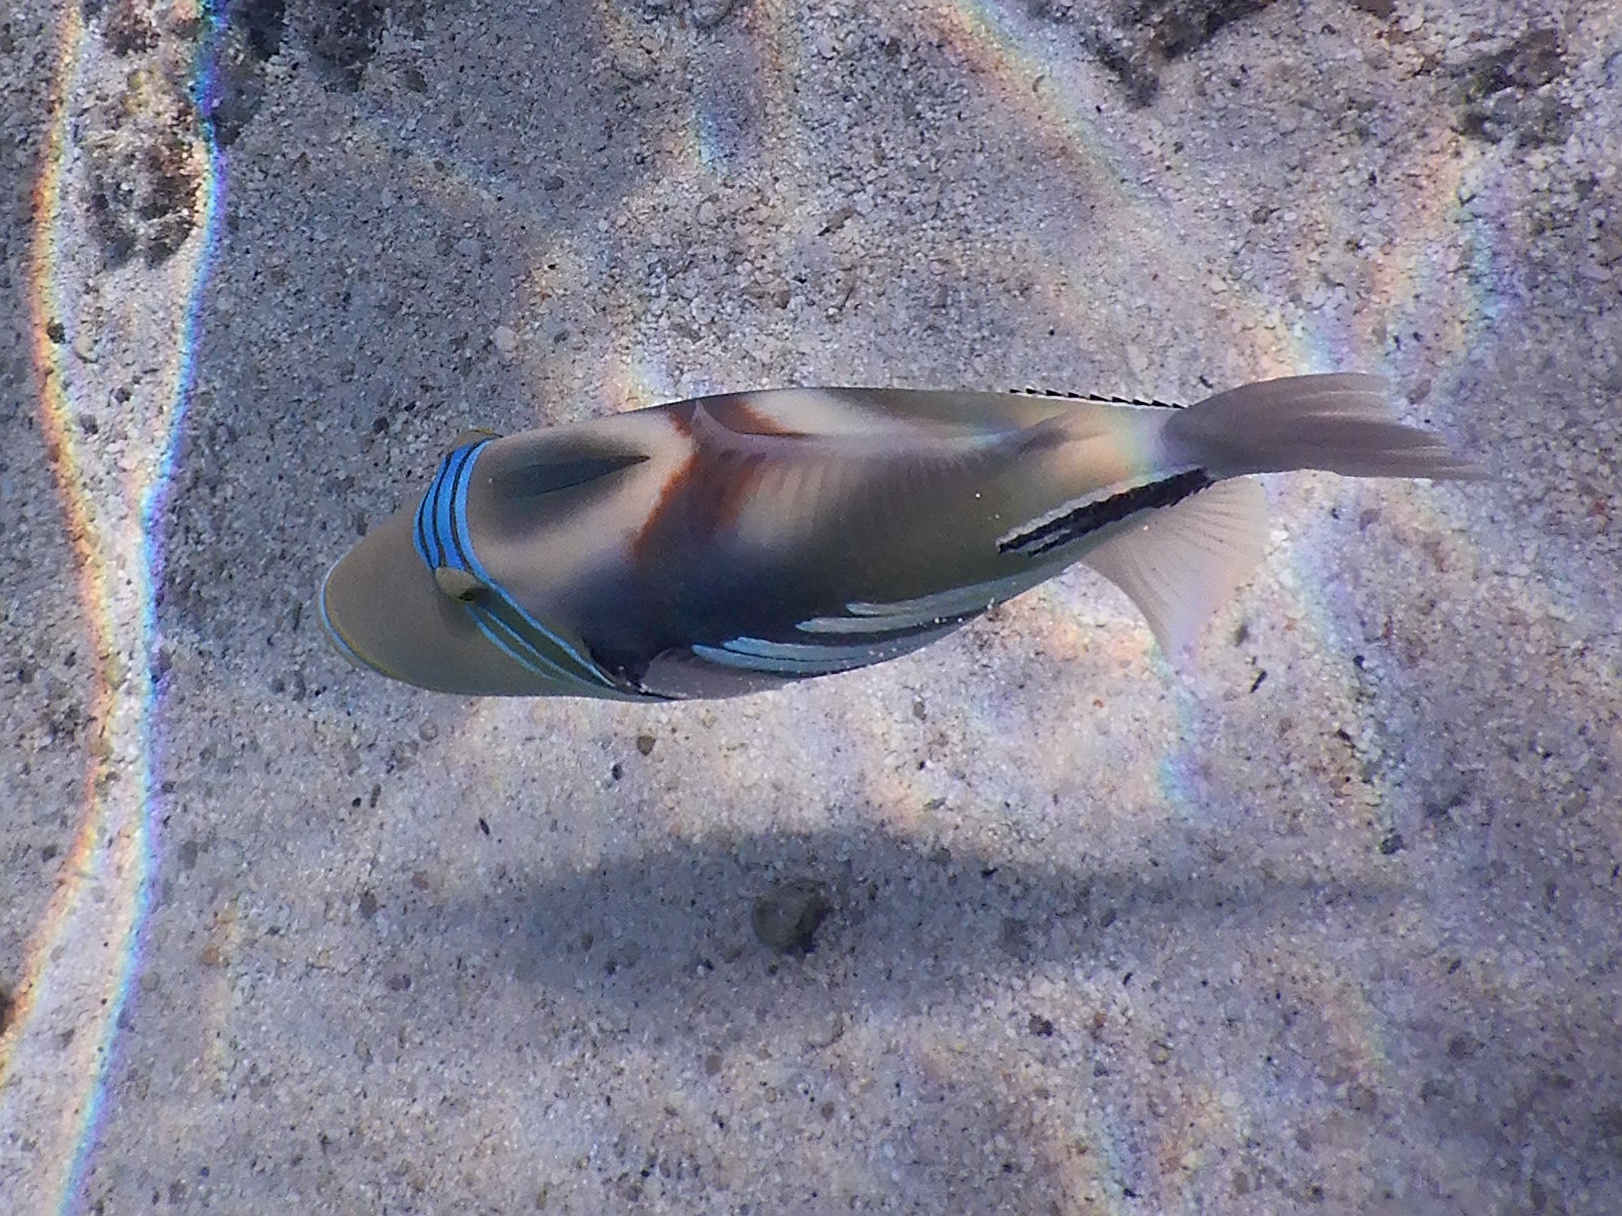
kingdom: Animalia
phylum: Chordata
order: Tetraodontiformes
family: Balistidae
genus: Rhinecanthus
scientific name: Rhinecanthus aculeatus
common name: White-banded triggerfish
